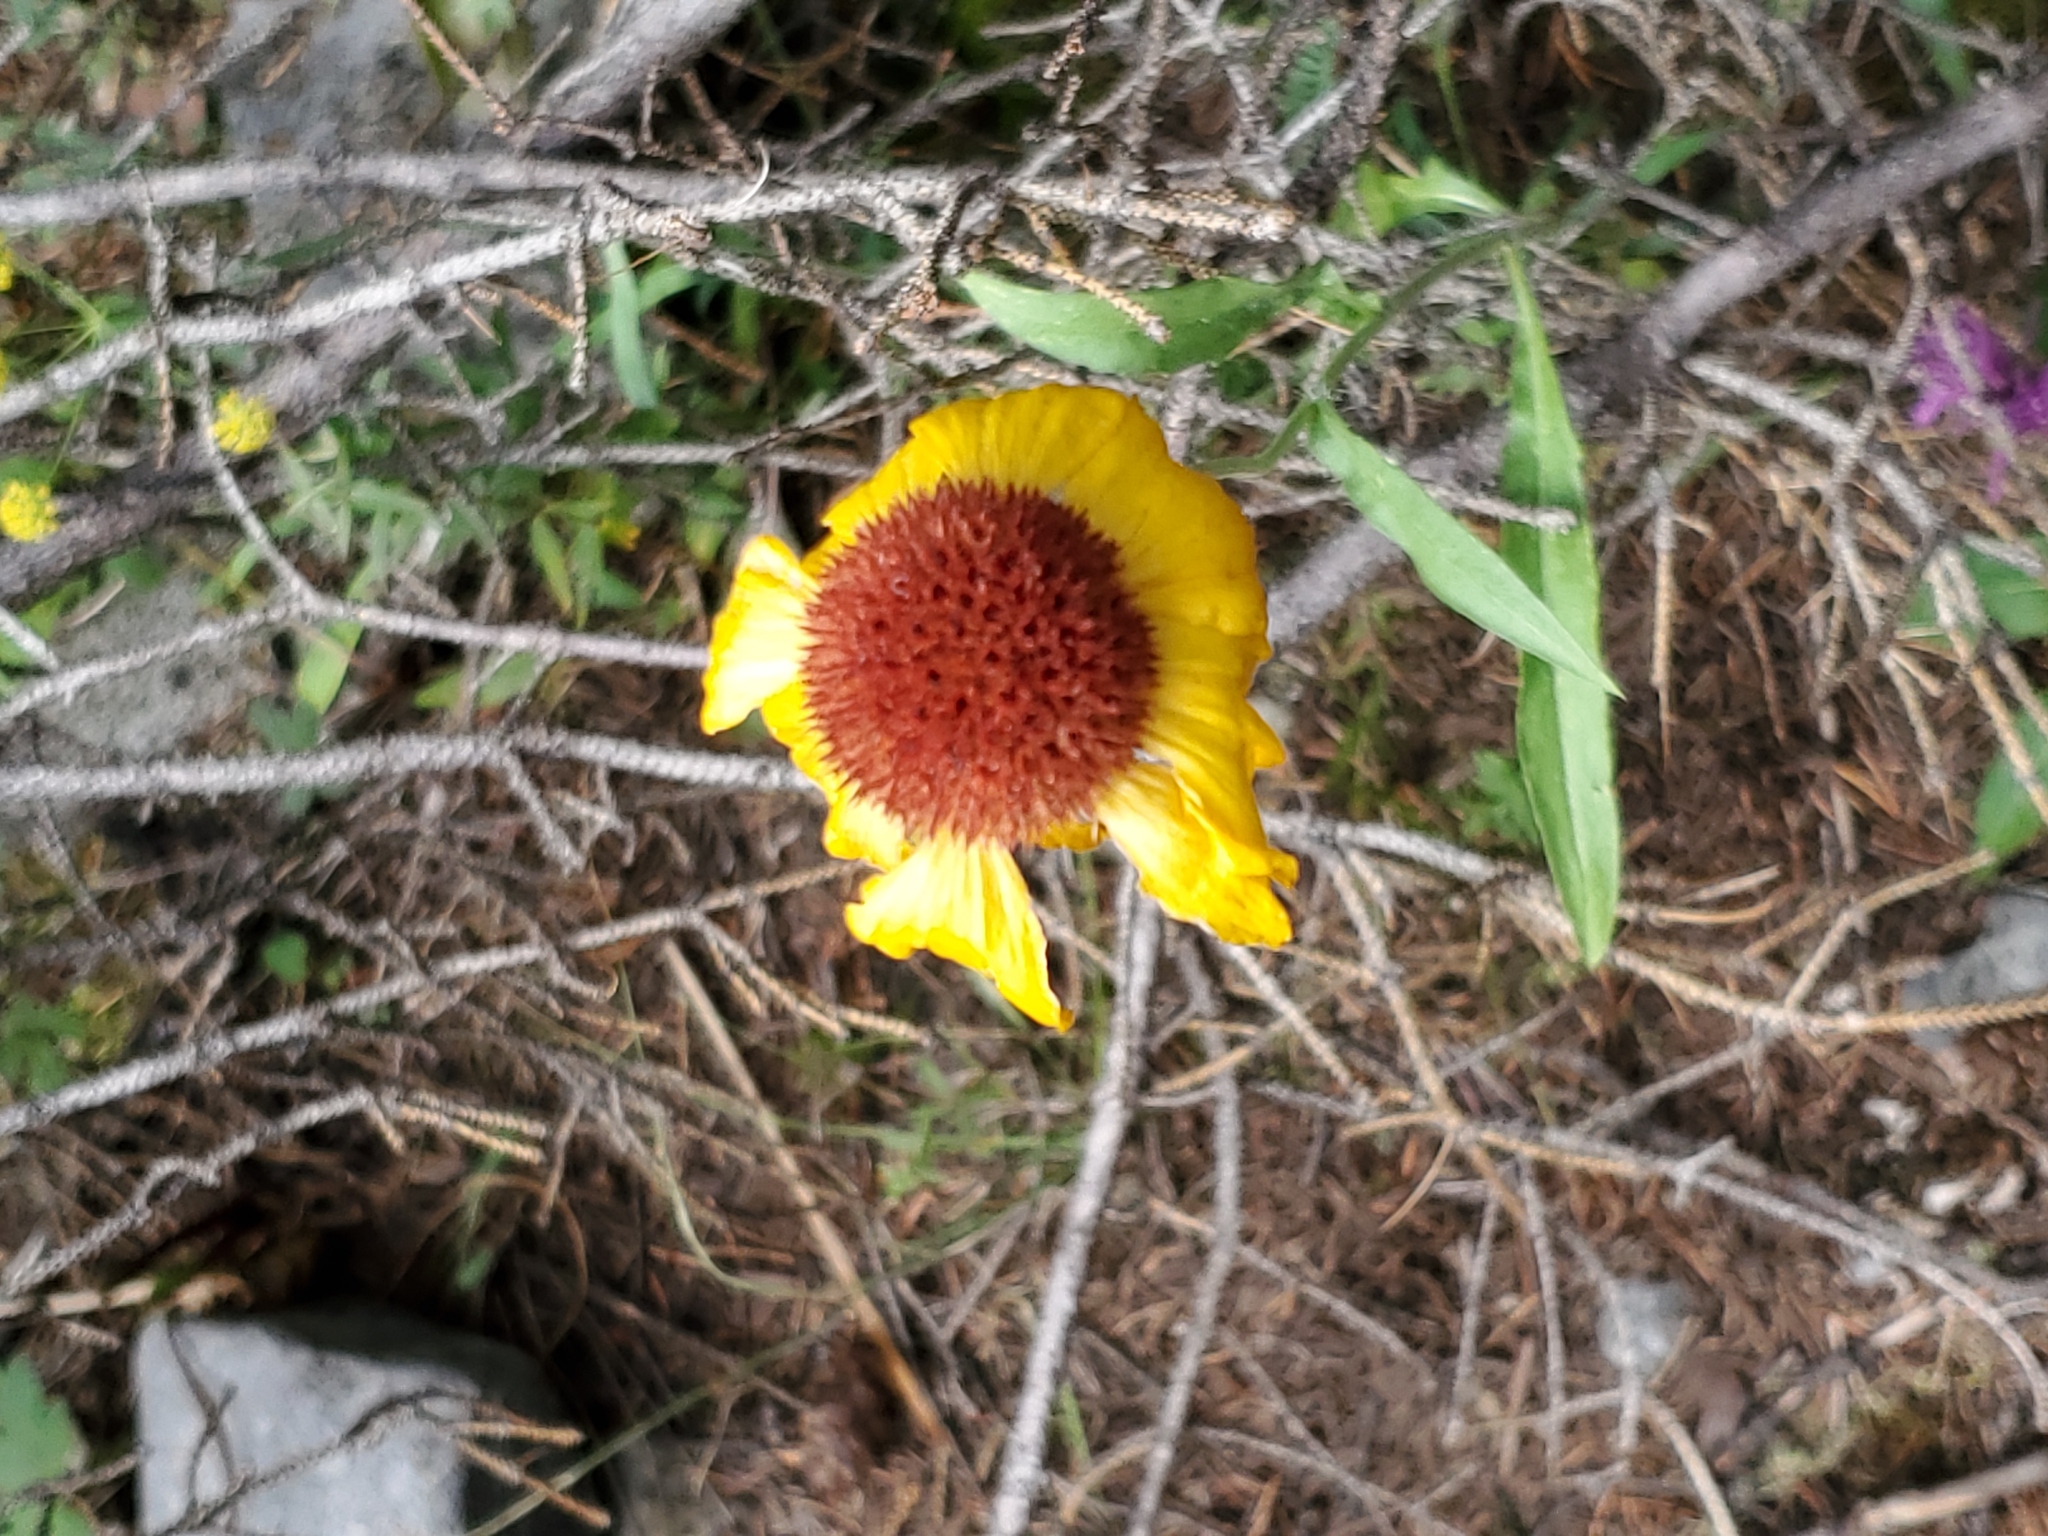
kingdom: Plantae
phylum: Tracheophyta
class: Magnoliopsida
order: Asterales
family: Asteraceae
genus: Gaillardia
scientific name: Gaillardia aristata
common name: Blanket-flower
